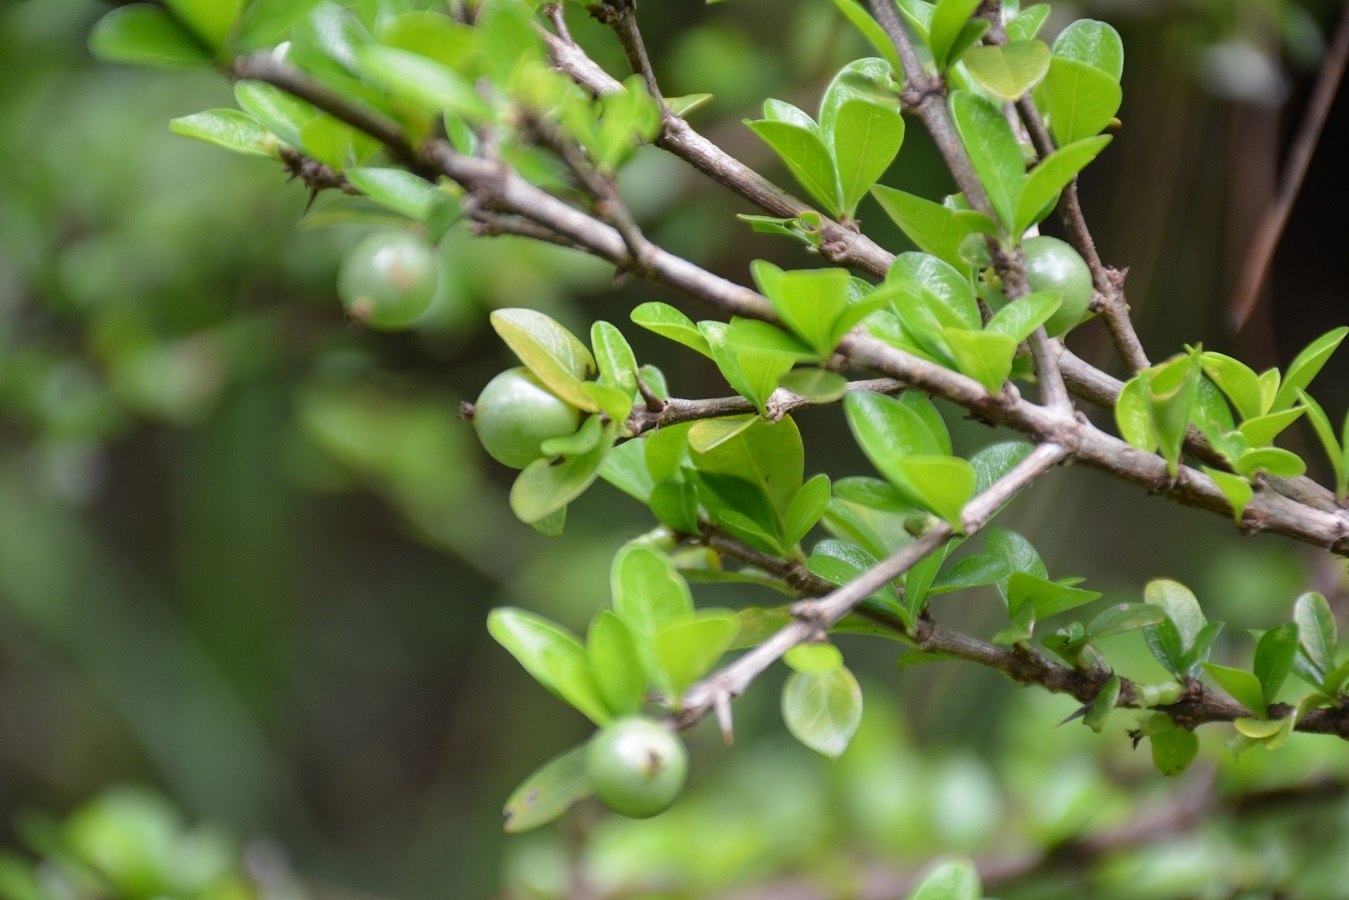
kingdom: Plantae
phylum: Tracheophyta
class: Magnoliopsida
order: Gentianales
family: Rubiaceae
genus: Randia
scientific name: Randia chiapensis
